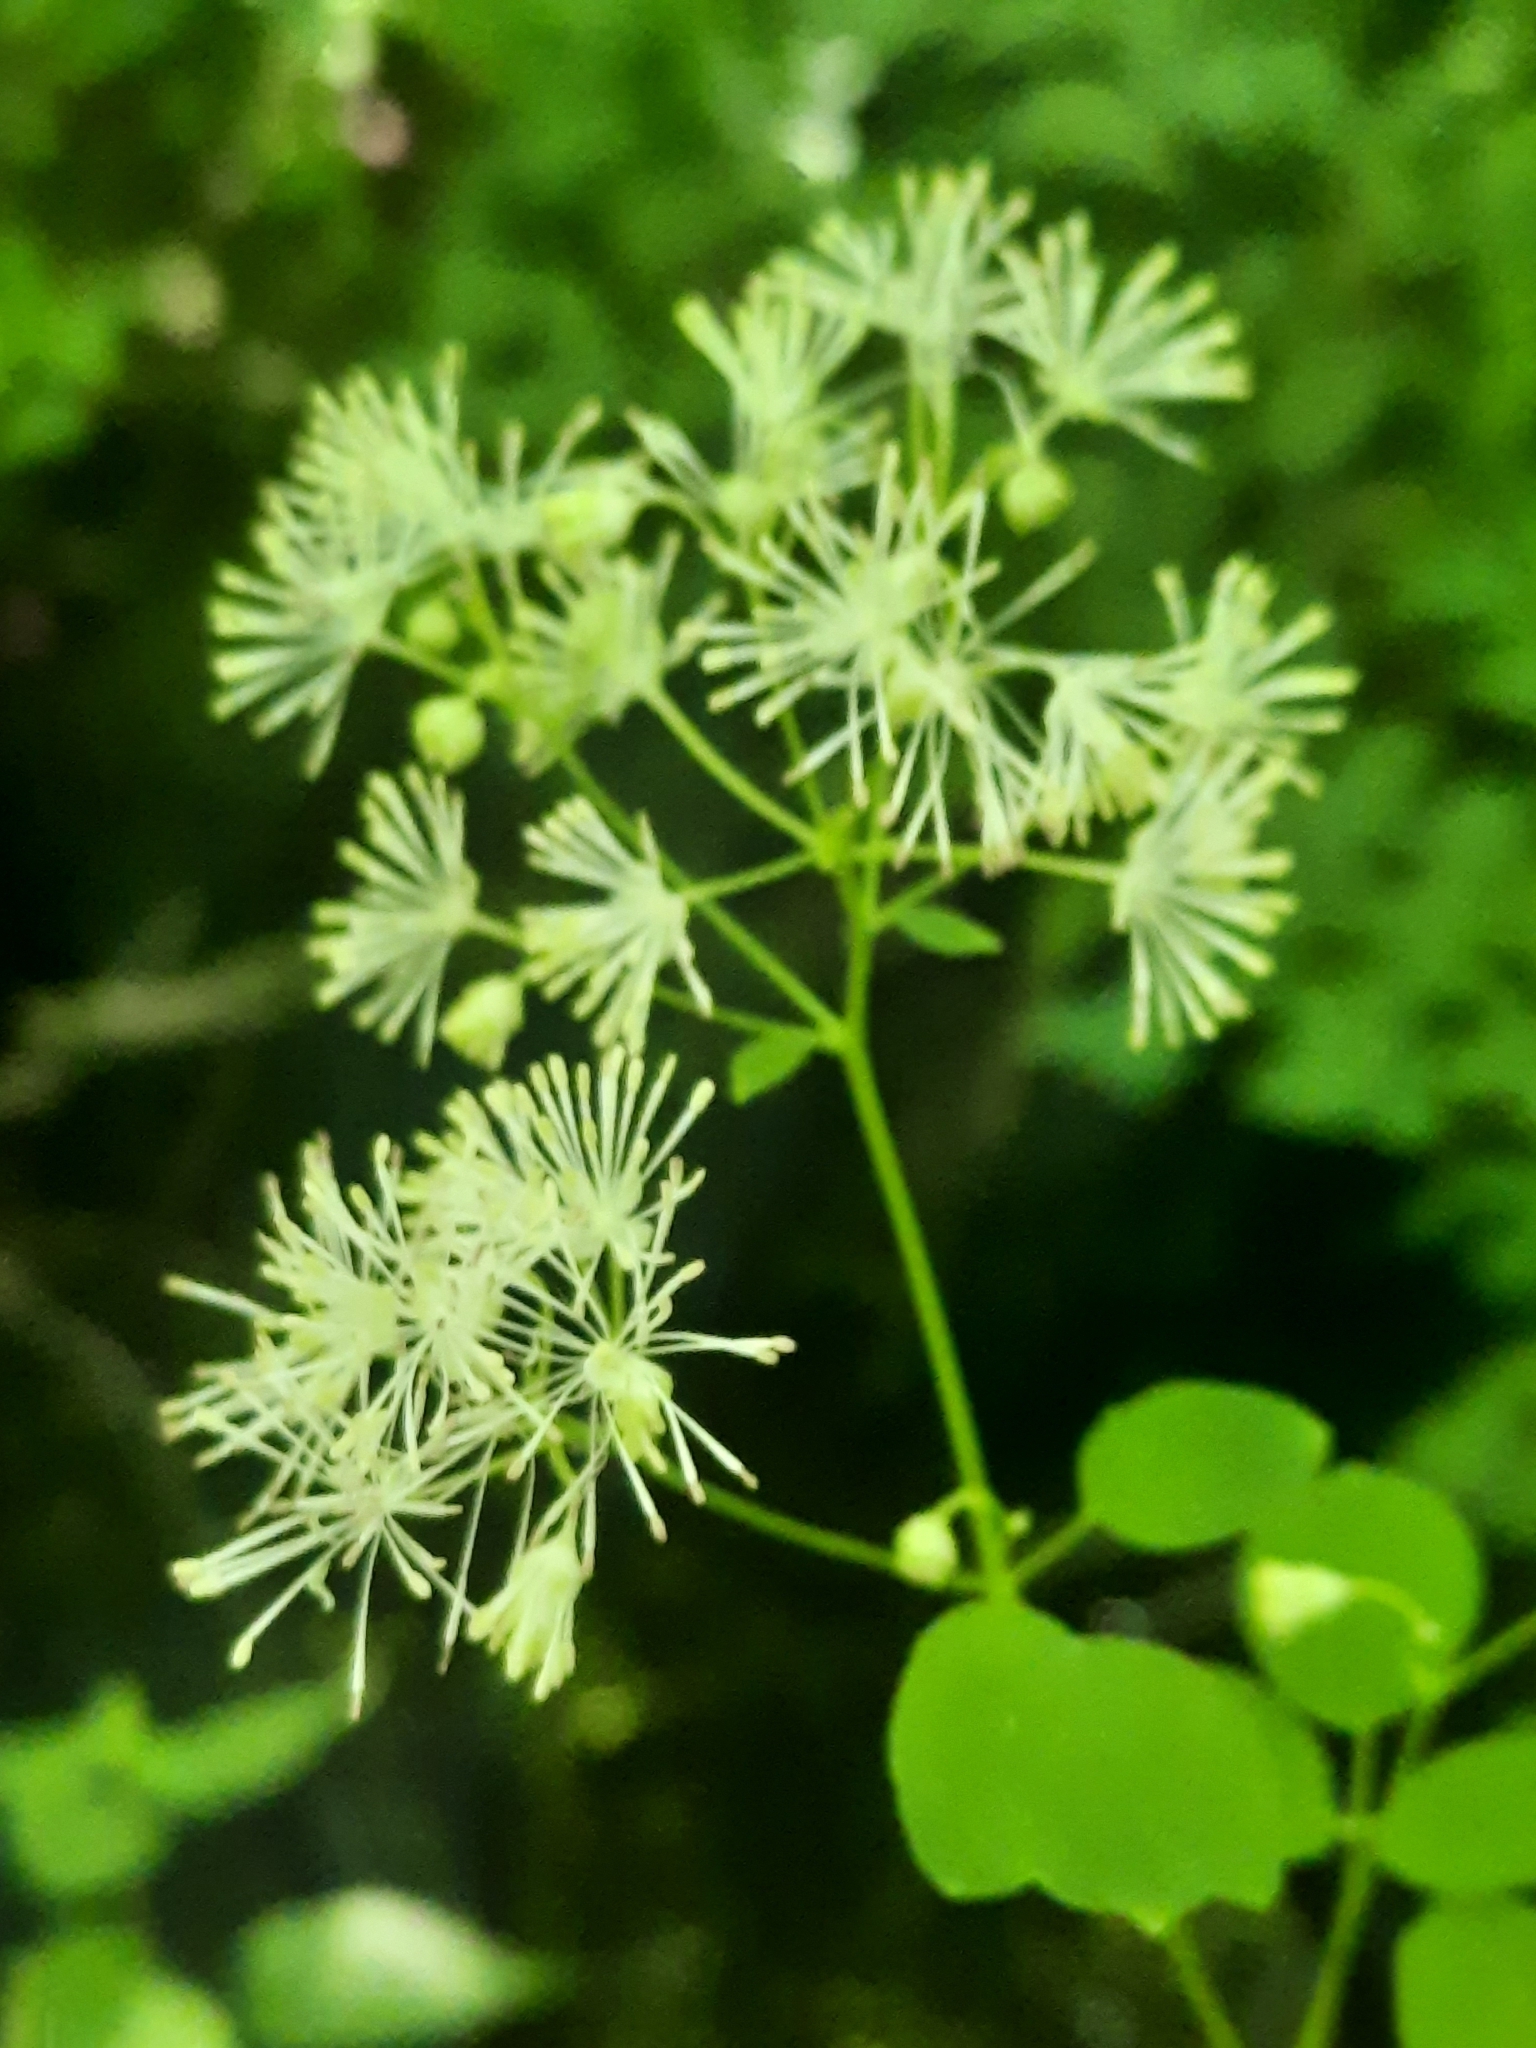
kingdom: Plantae
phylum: Tracheophyta
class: Magnoliopsida
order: Ranunculales
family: Ranunculaceae
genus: Thalictrum
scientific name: Thalictrum pubescens
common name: King-of-the-meadow
